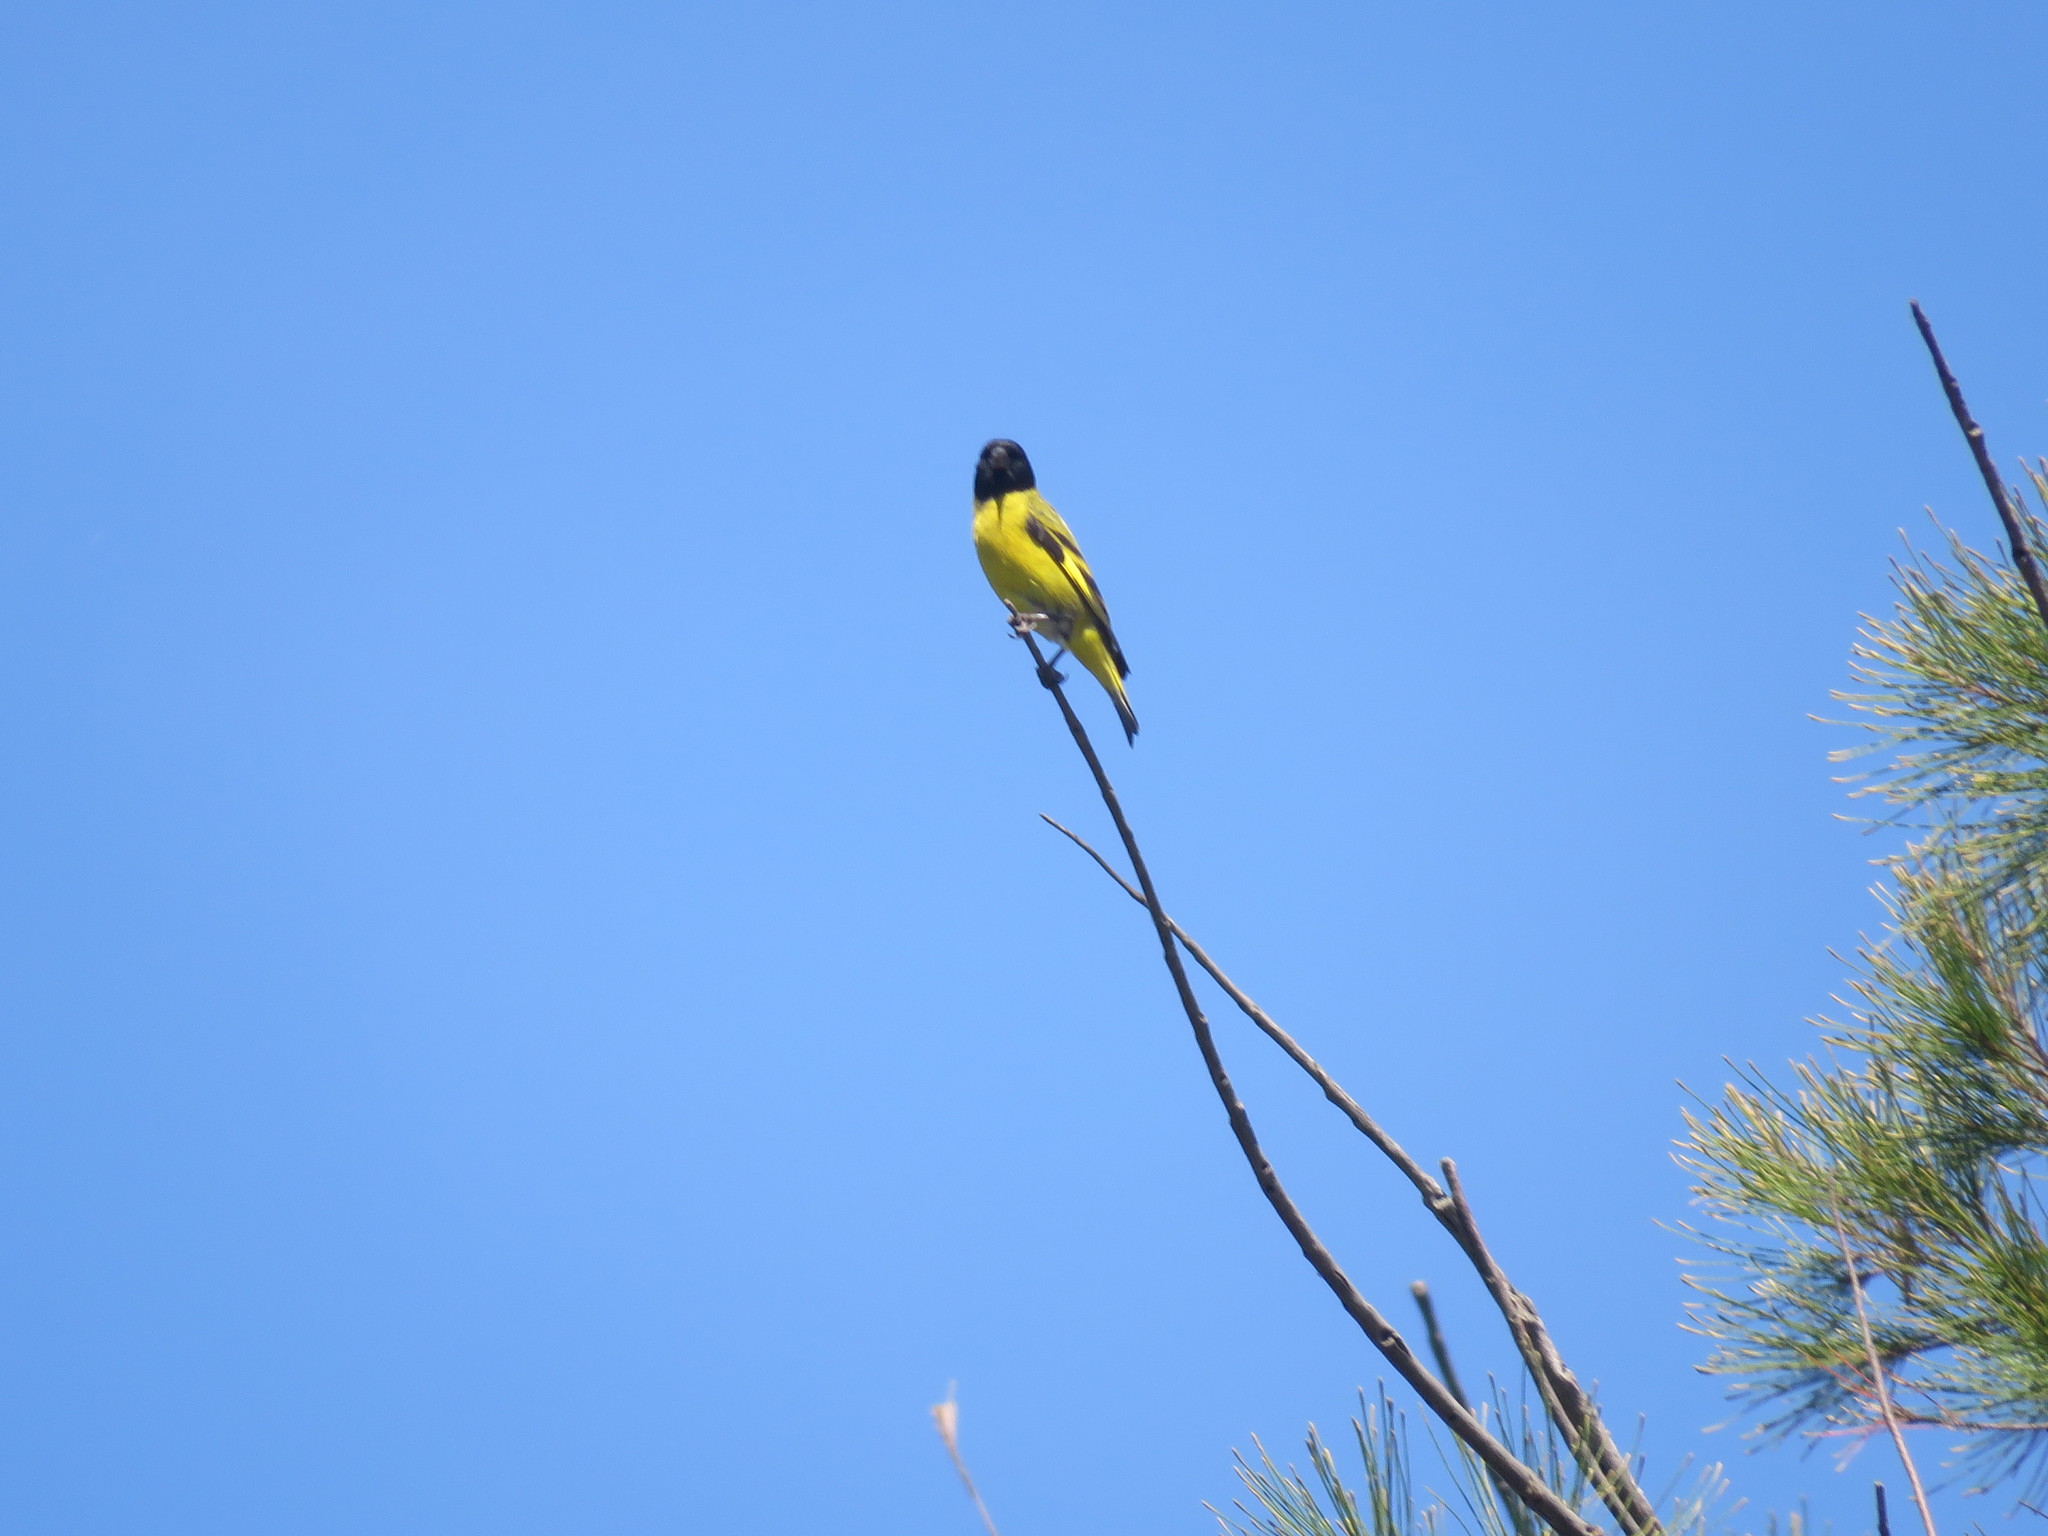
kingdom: Animalia
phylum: Chordata
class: Aves
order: Passeriformes
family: Fringillidae
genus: Spinus
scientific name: Spinus magellanicus
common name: Hooded siskin
